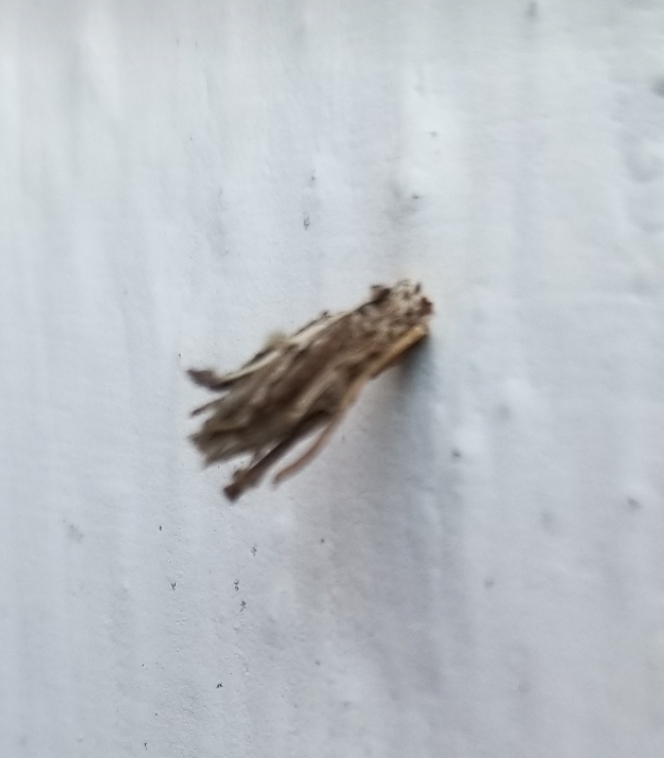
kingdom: Animalia
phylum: Arthropoda
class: Insecta
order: Lepidoptera
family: Psychidae
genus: Psyche
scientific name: Psyche casta
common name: Common sweep
